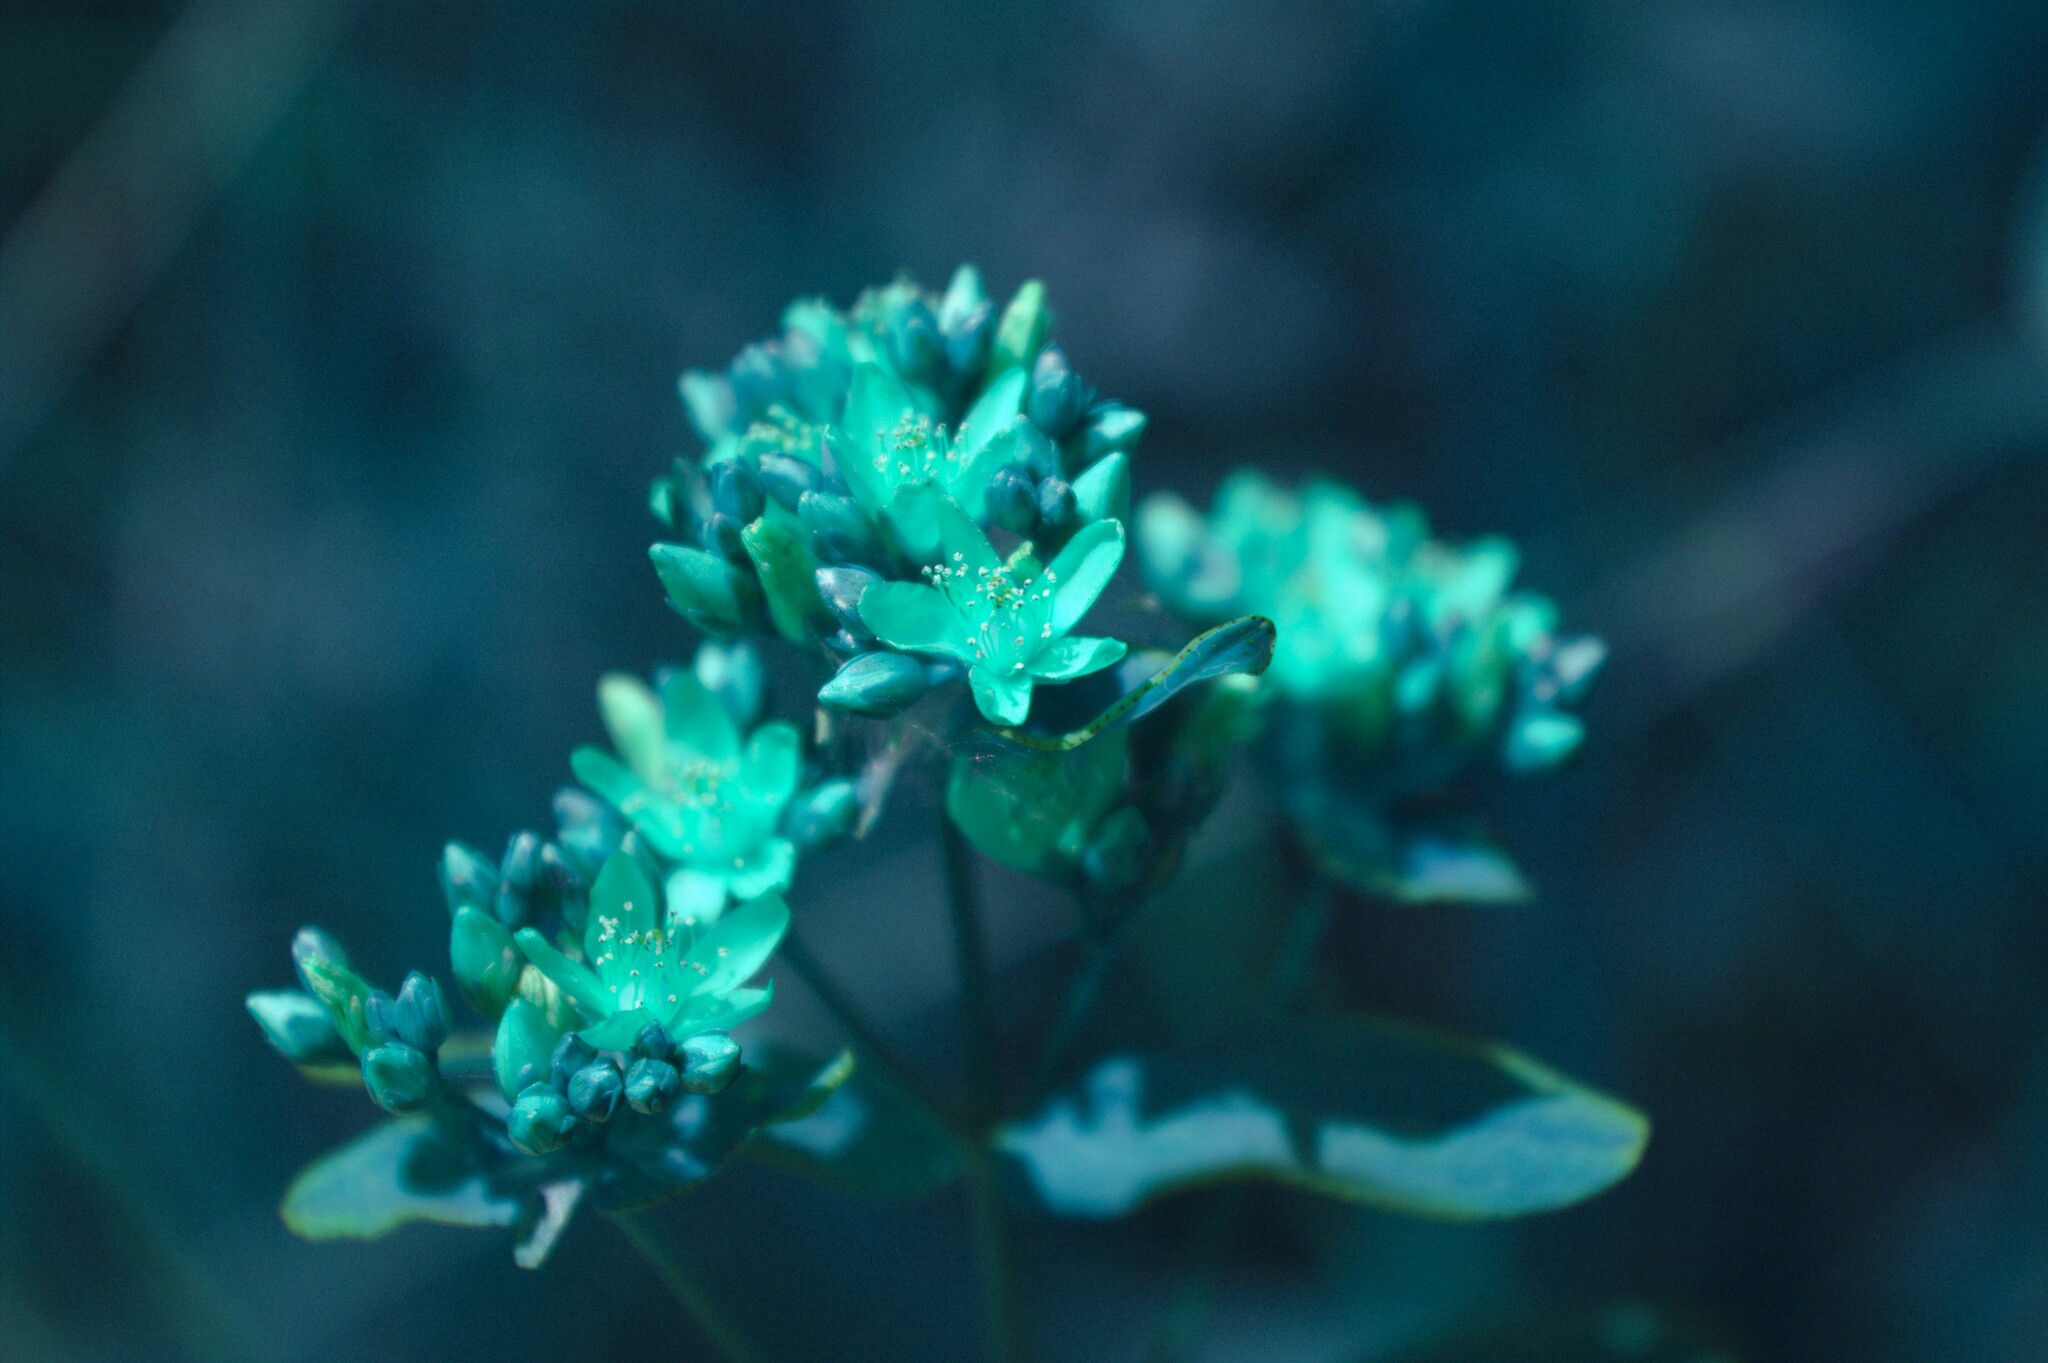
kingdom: Plantae
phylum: Tracheophyta
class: Magnoliopsida
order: Malpighiales
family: Hypericaceae
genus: Hypericum
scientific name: Hypericum punctatum
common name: Spotted st. john's-wort
